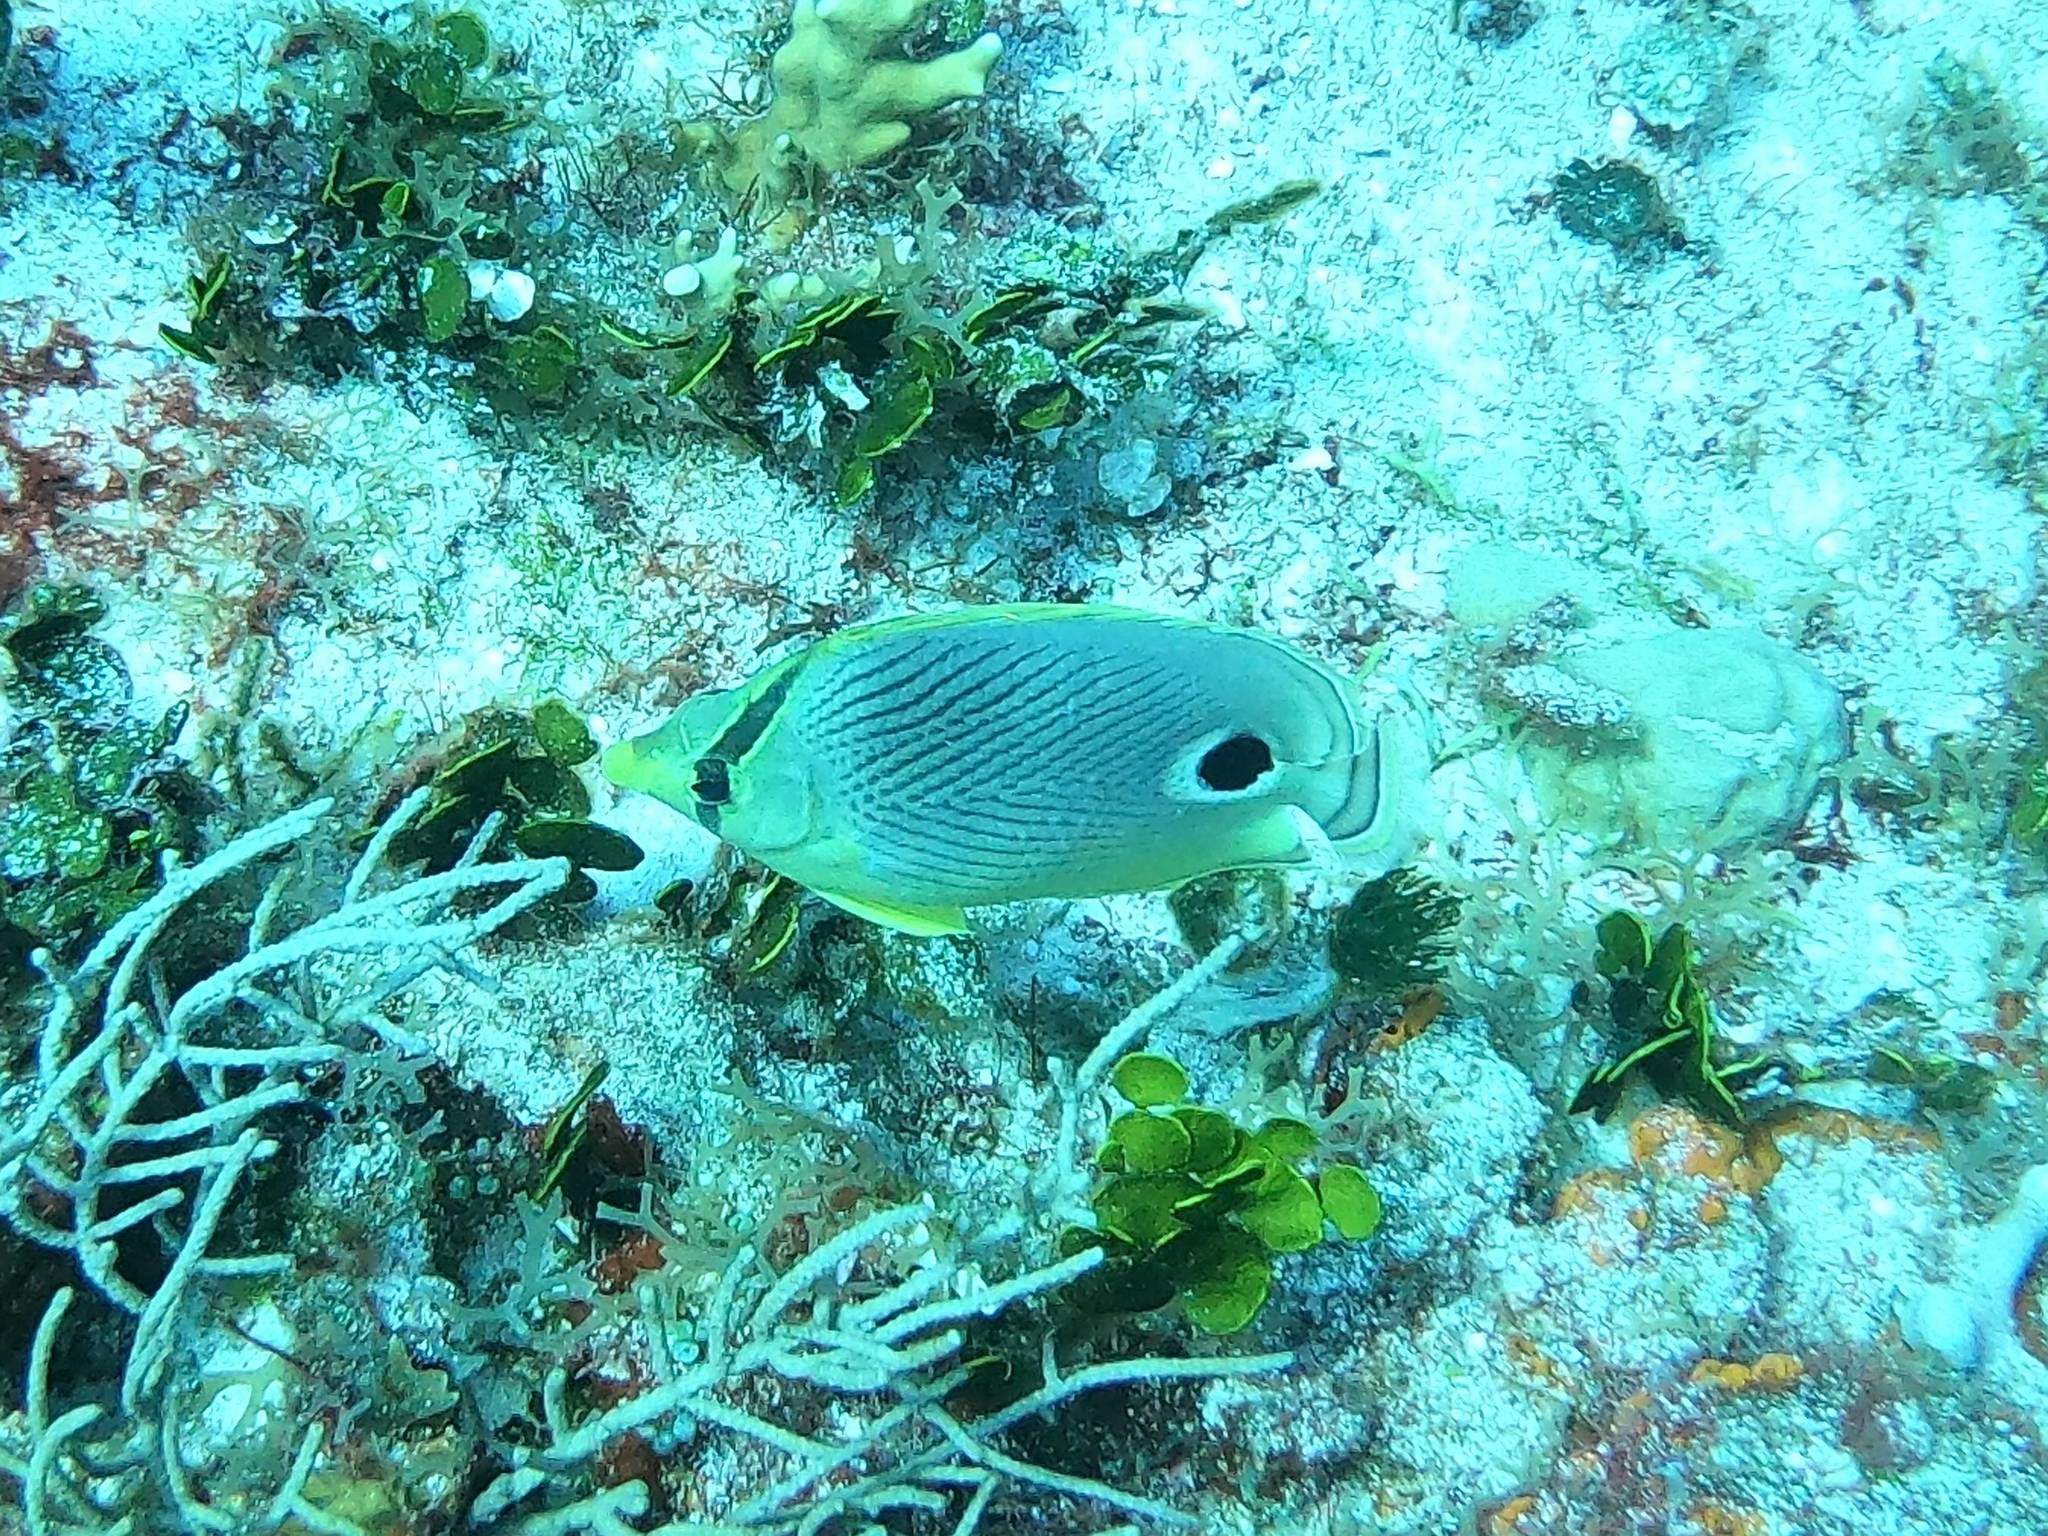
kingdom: Animalia
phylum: Chordata
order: Perciformes
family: Chaetodontidae
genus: Chaetodon
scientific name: Chaetodon capistratus
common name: Kete
